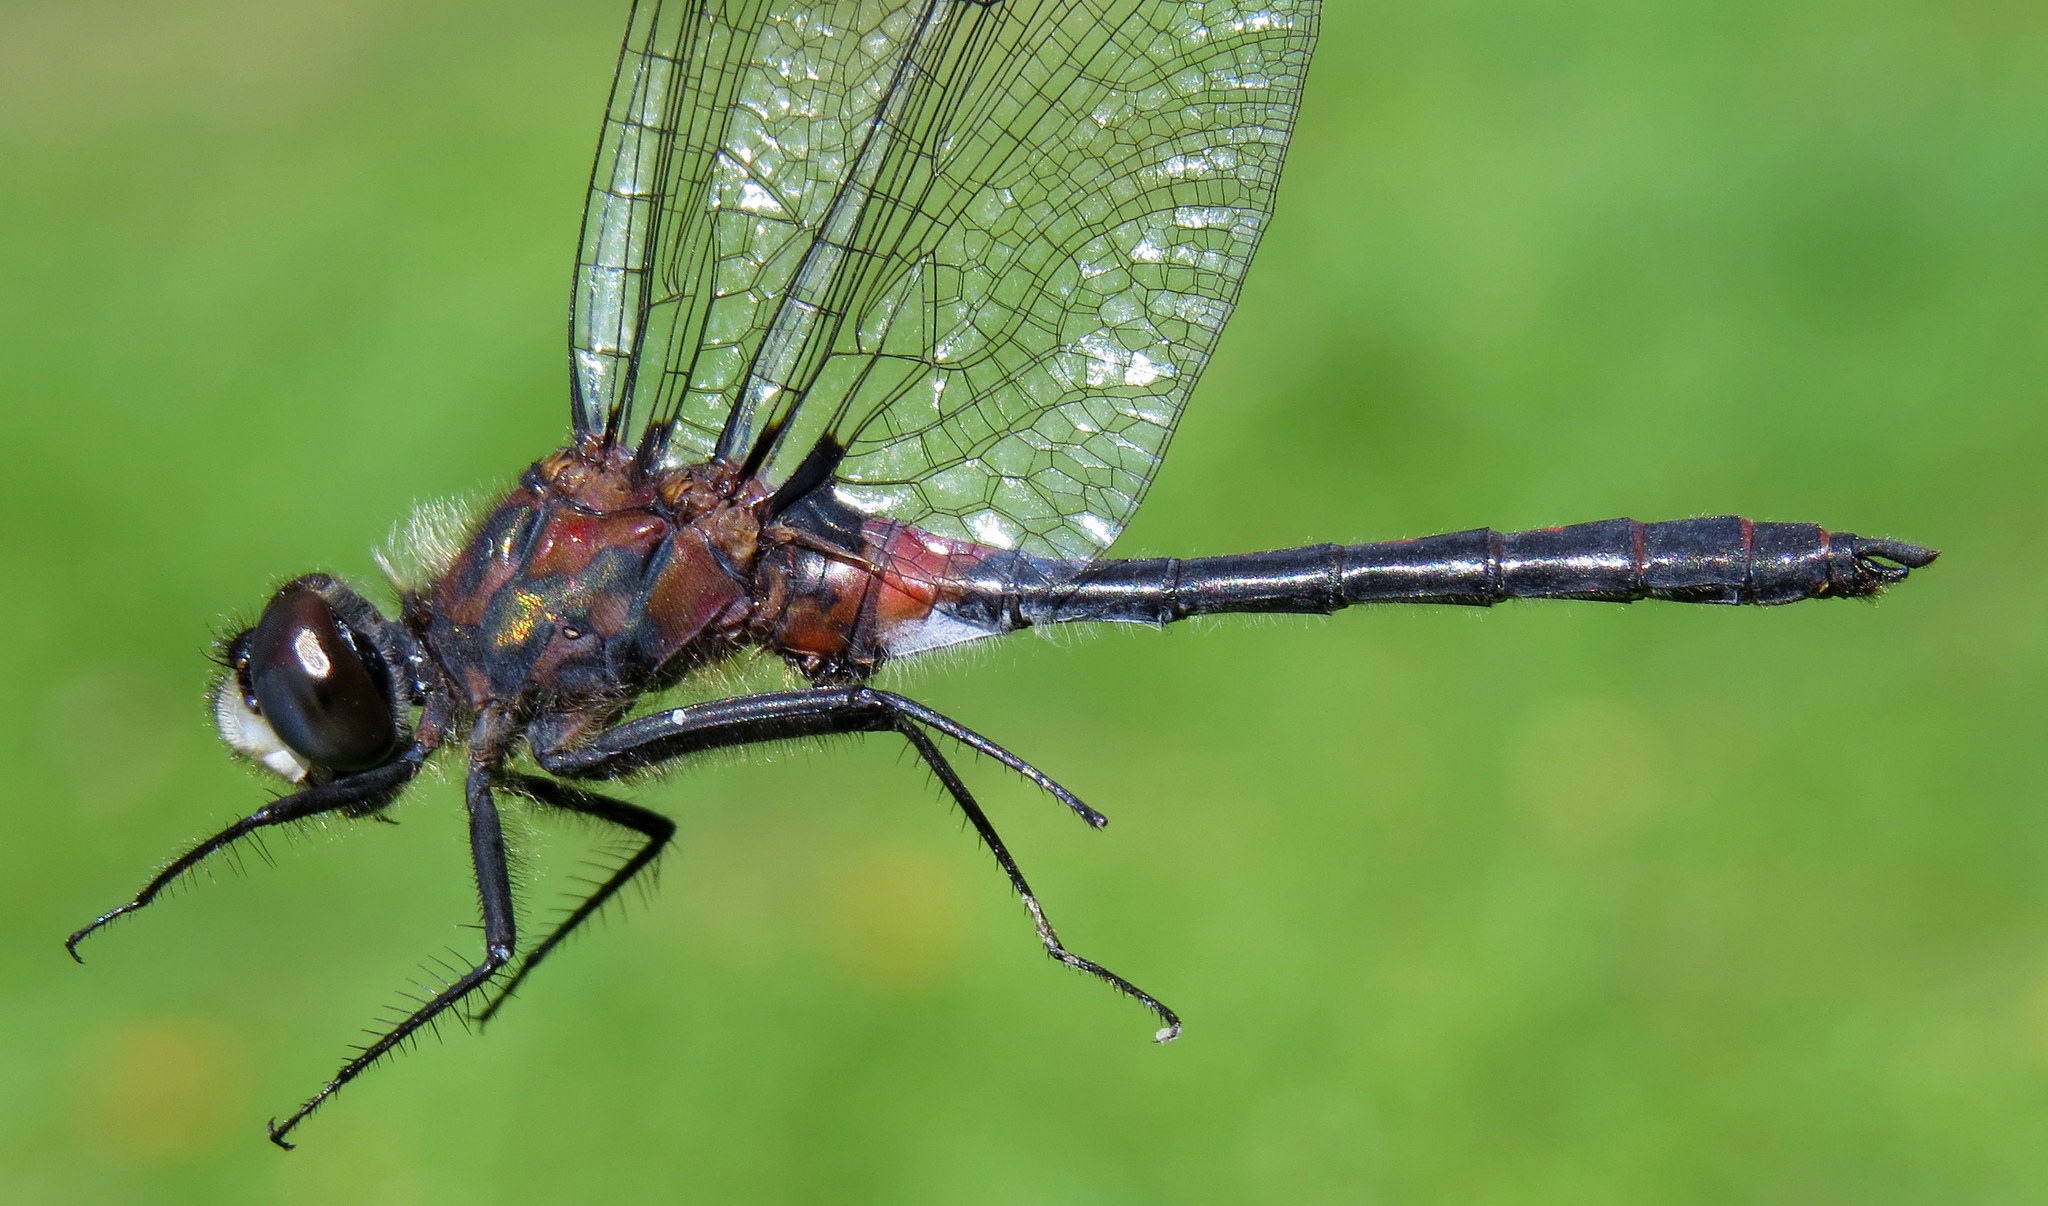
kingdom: Animalia
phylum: Arthropoda
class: Insecta
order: Odonata
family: Libellulidae
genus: Leucorrhinia
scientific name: Leucorrhinia proxima
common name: Belted whiteface
